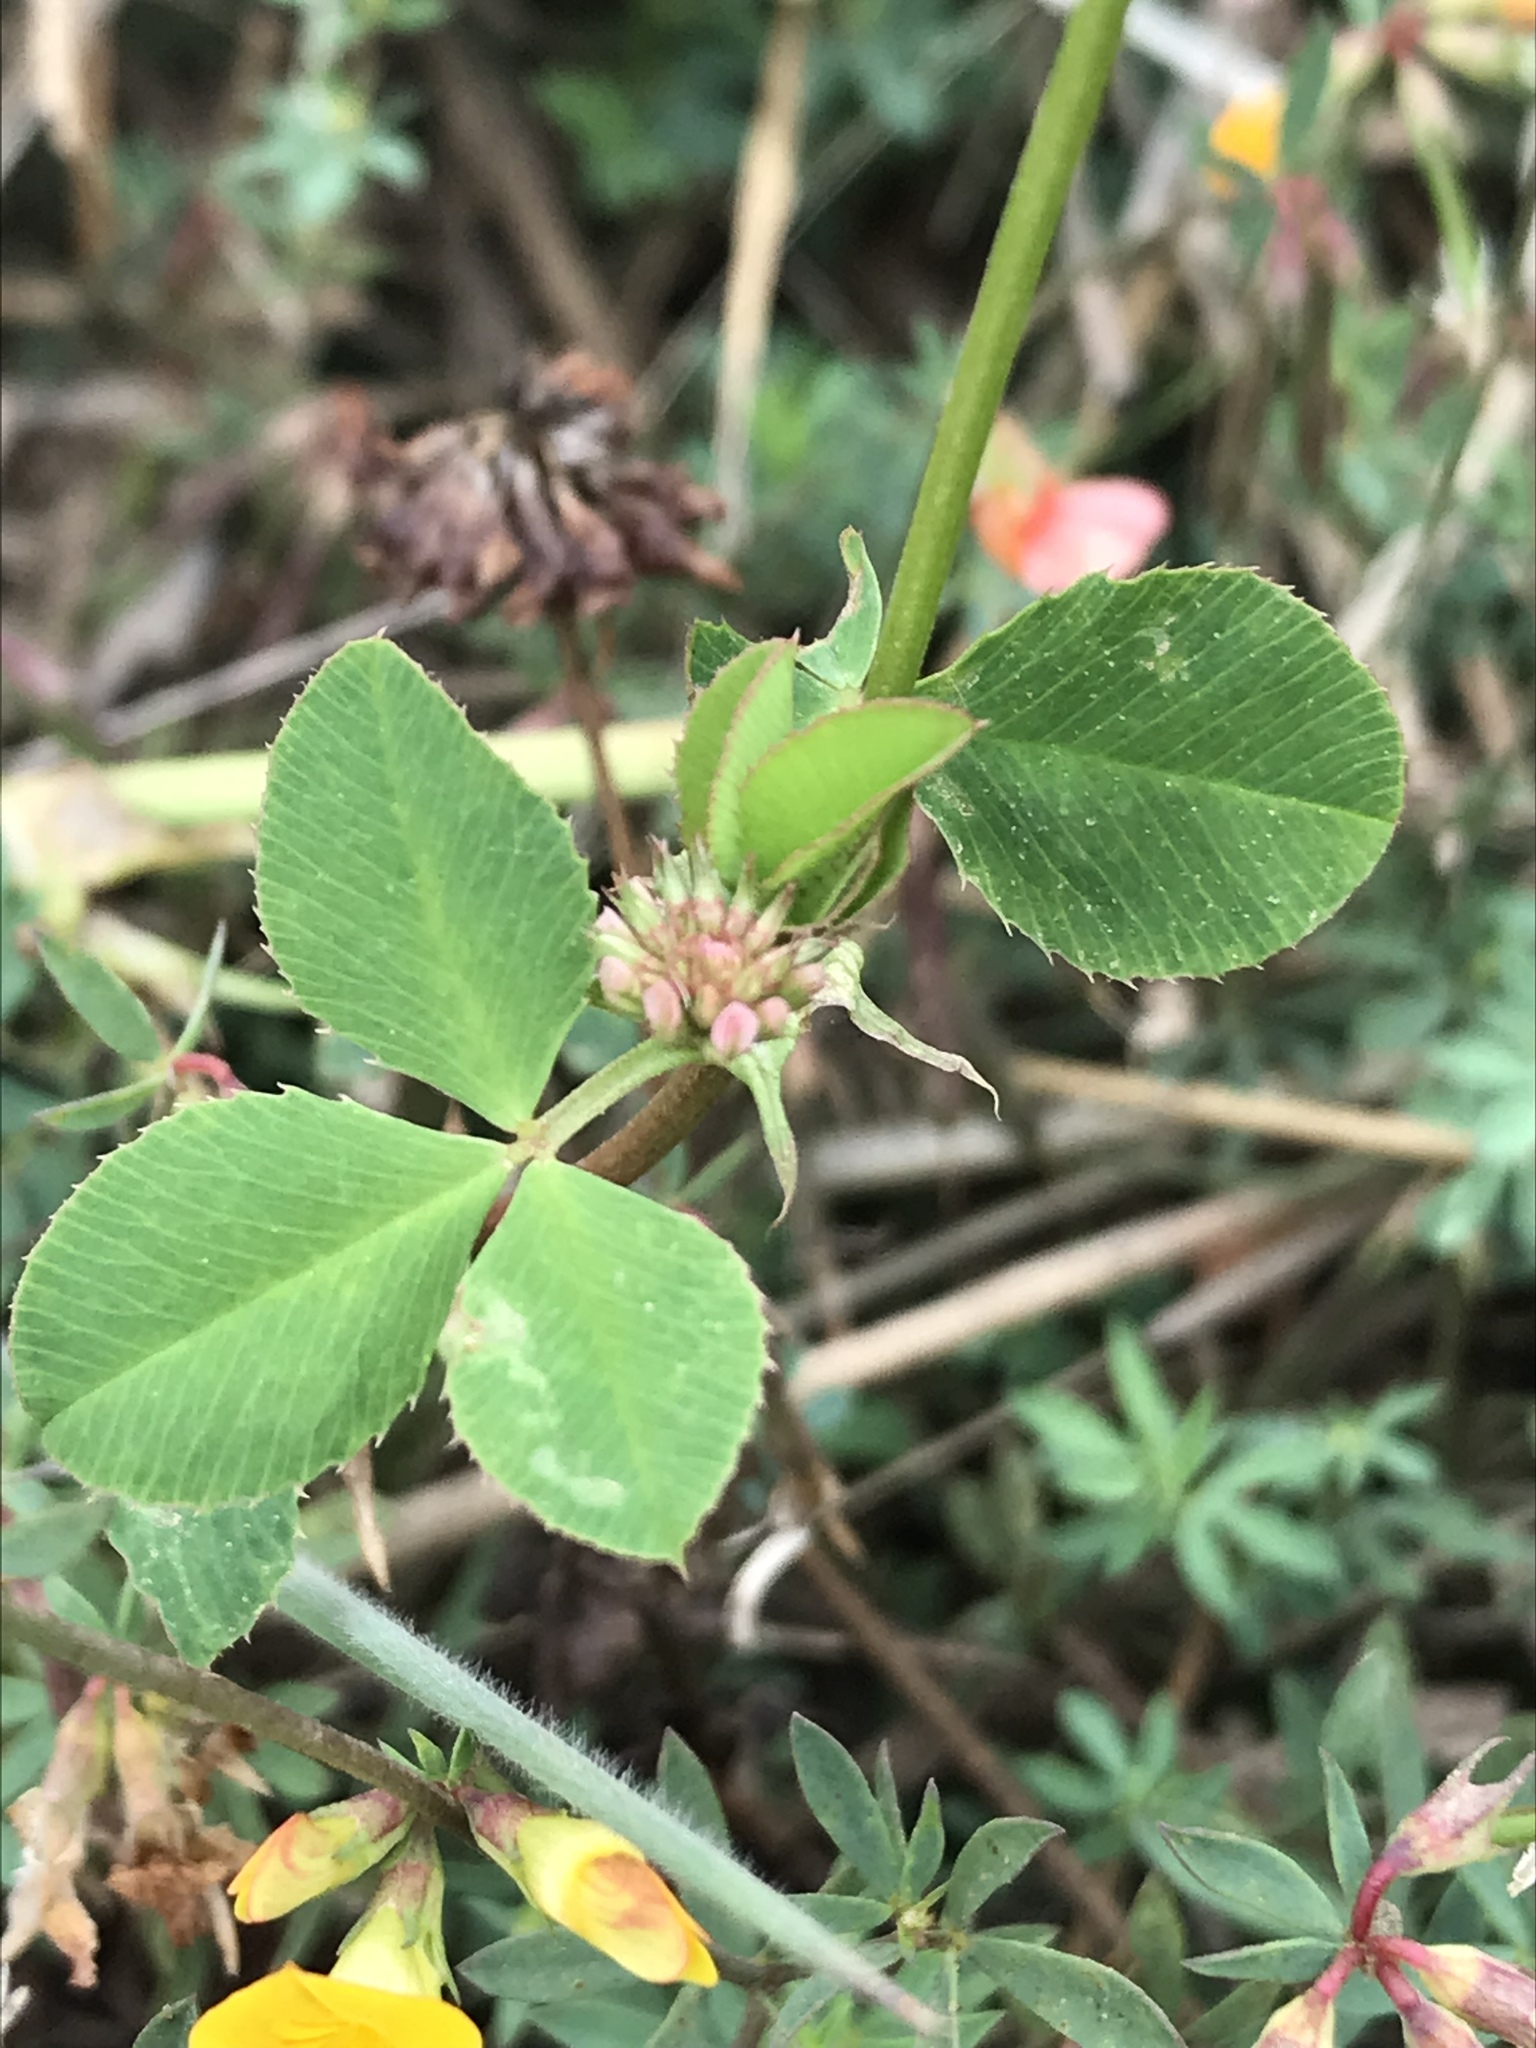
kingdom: Plantae
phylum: Tracheophyta
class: Magnoliopsida
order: Fabales
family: Fabaceae
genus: Trifolium
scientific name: Trifolium hybridum
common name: Alsike clover
